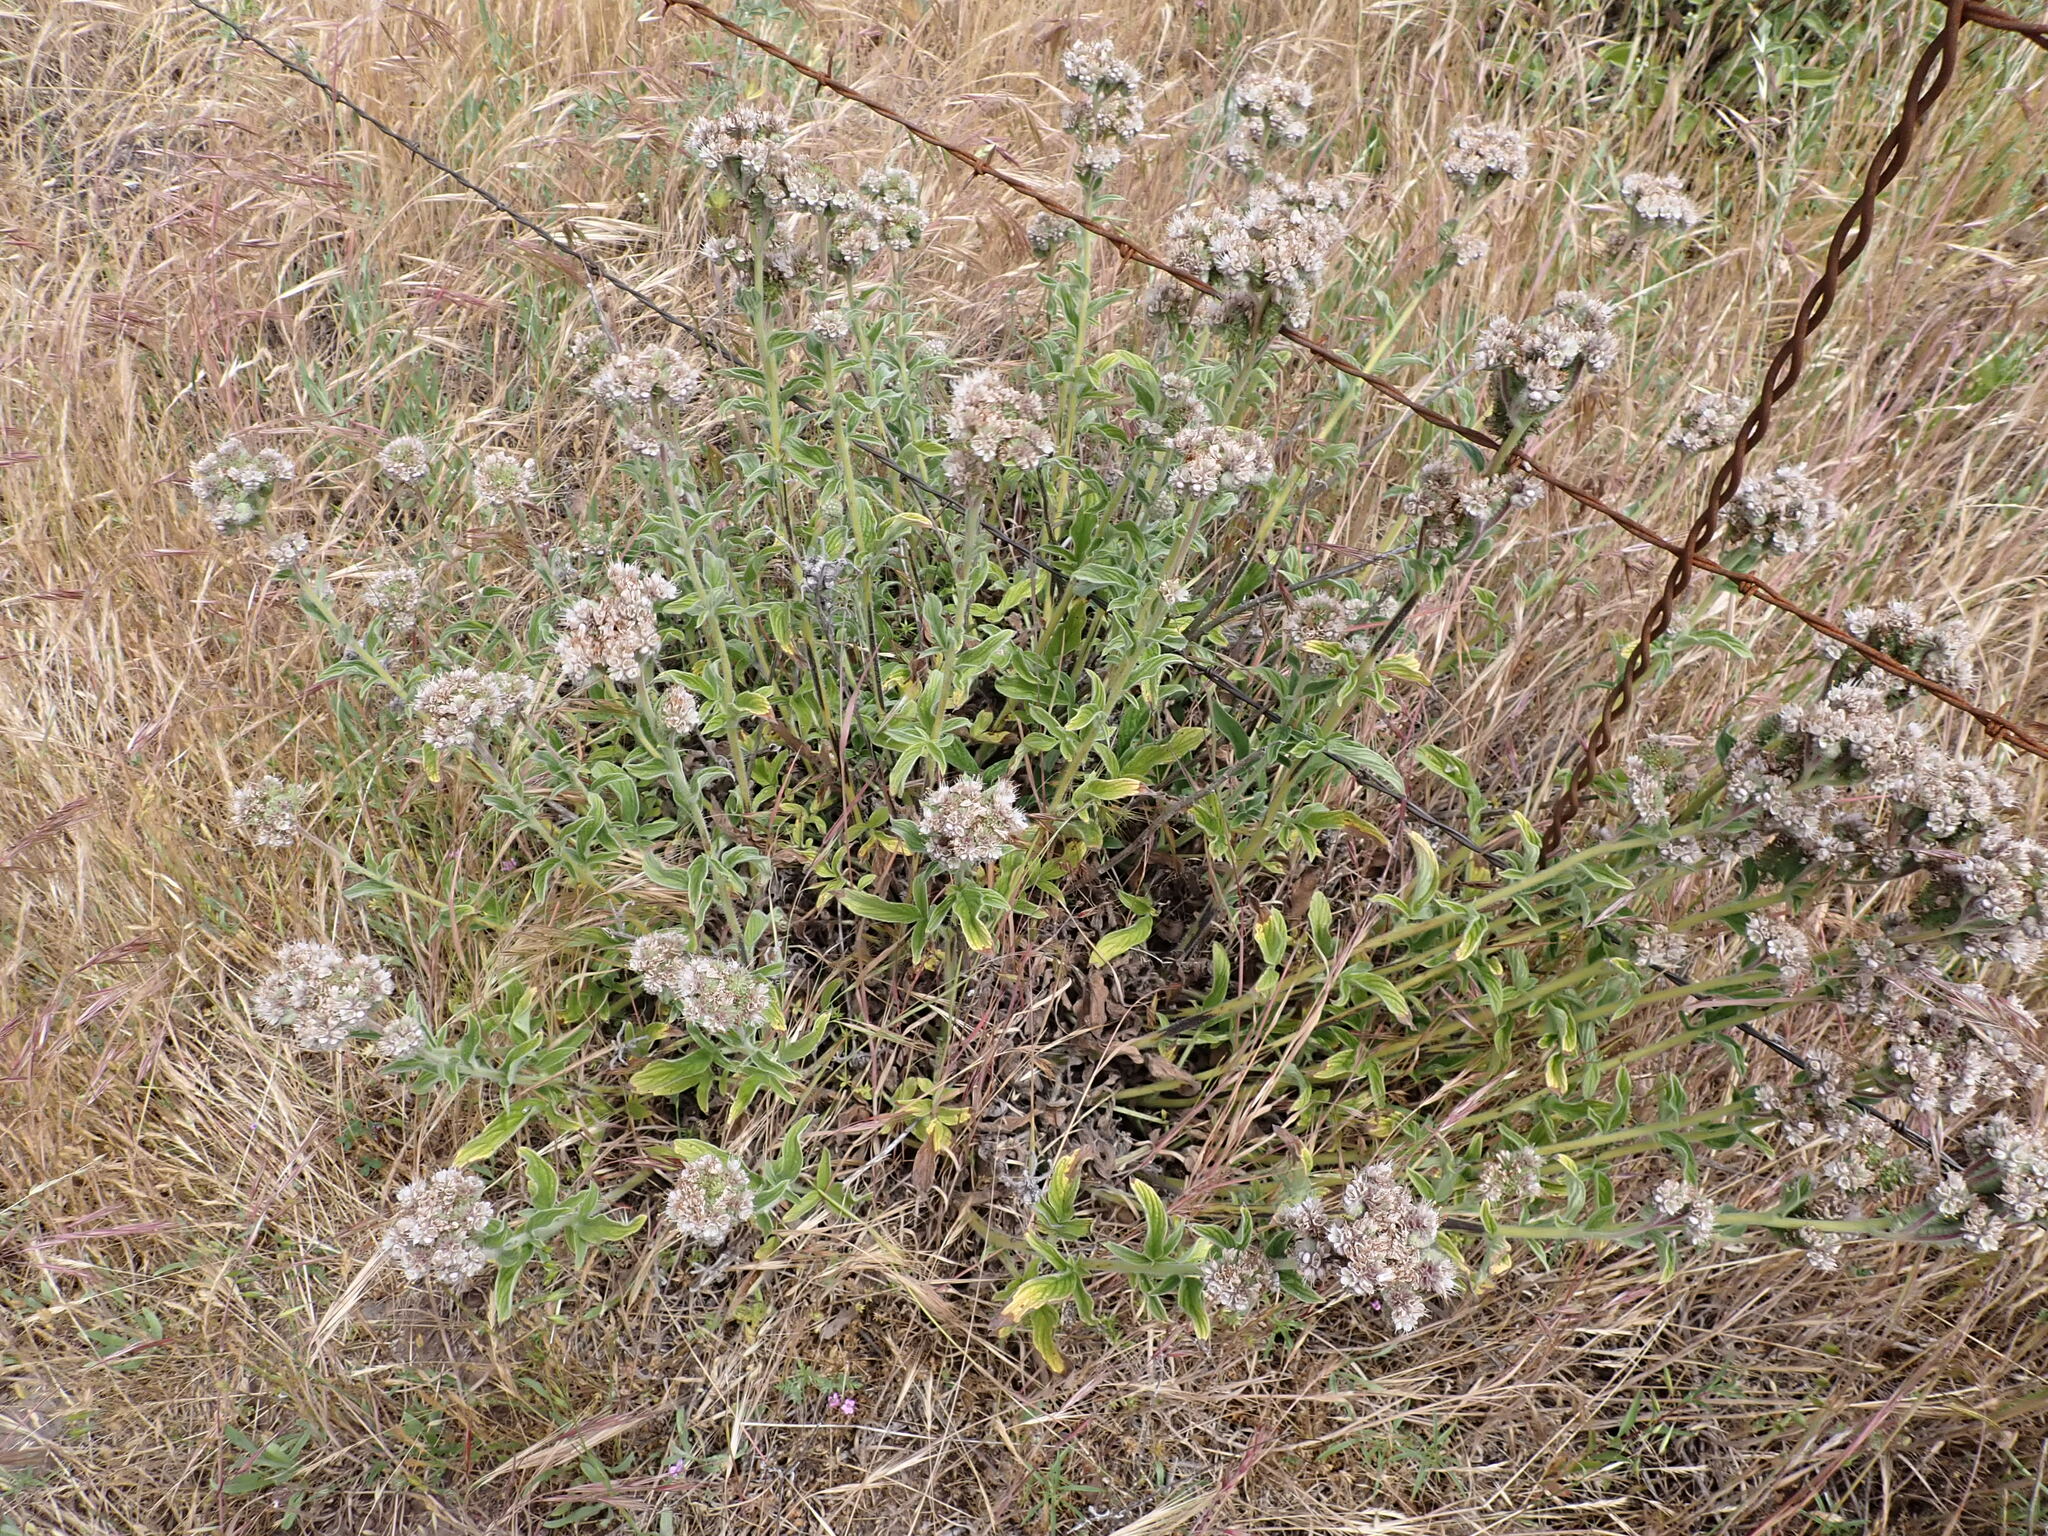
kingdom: Plantae
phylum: Tracheophyta
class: Magnoliopsida
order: Boraginales
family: Hydrophyllaceae
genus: Phacelia
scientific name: Phacelia californica
